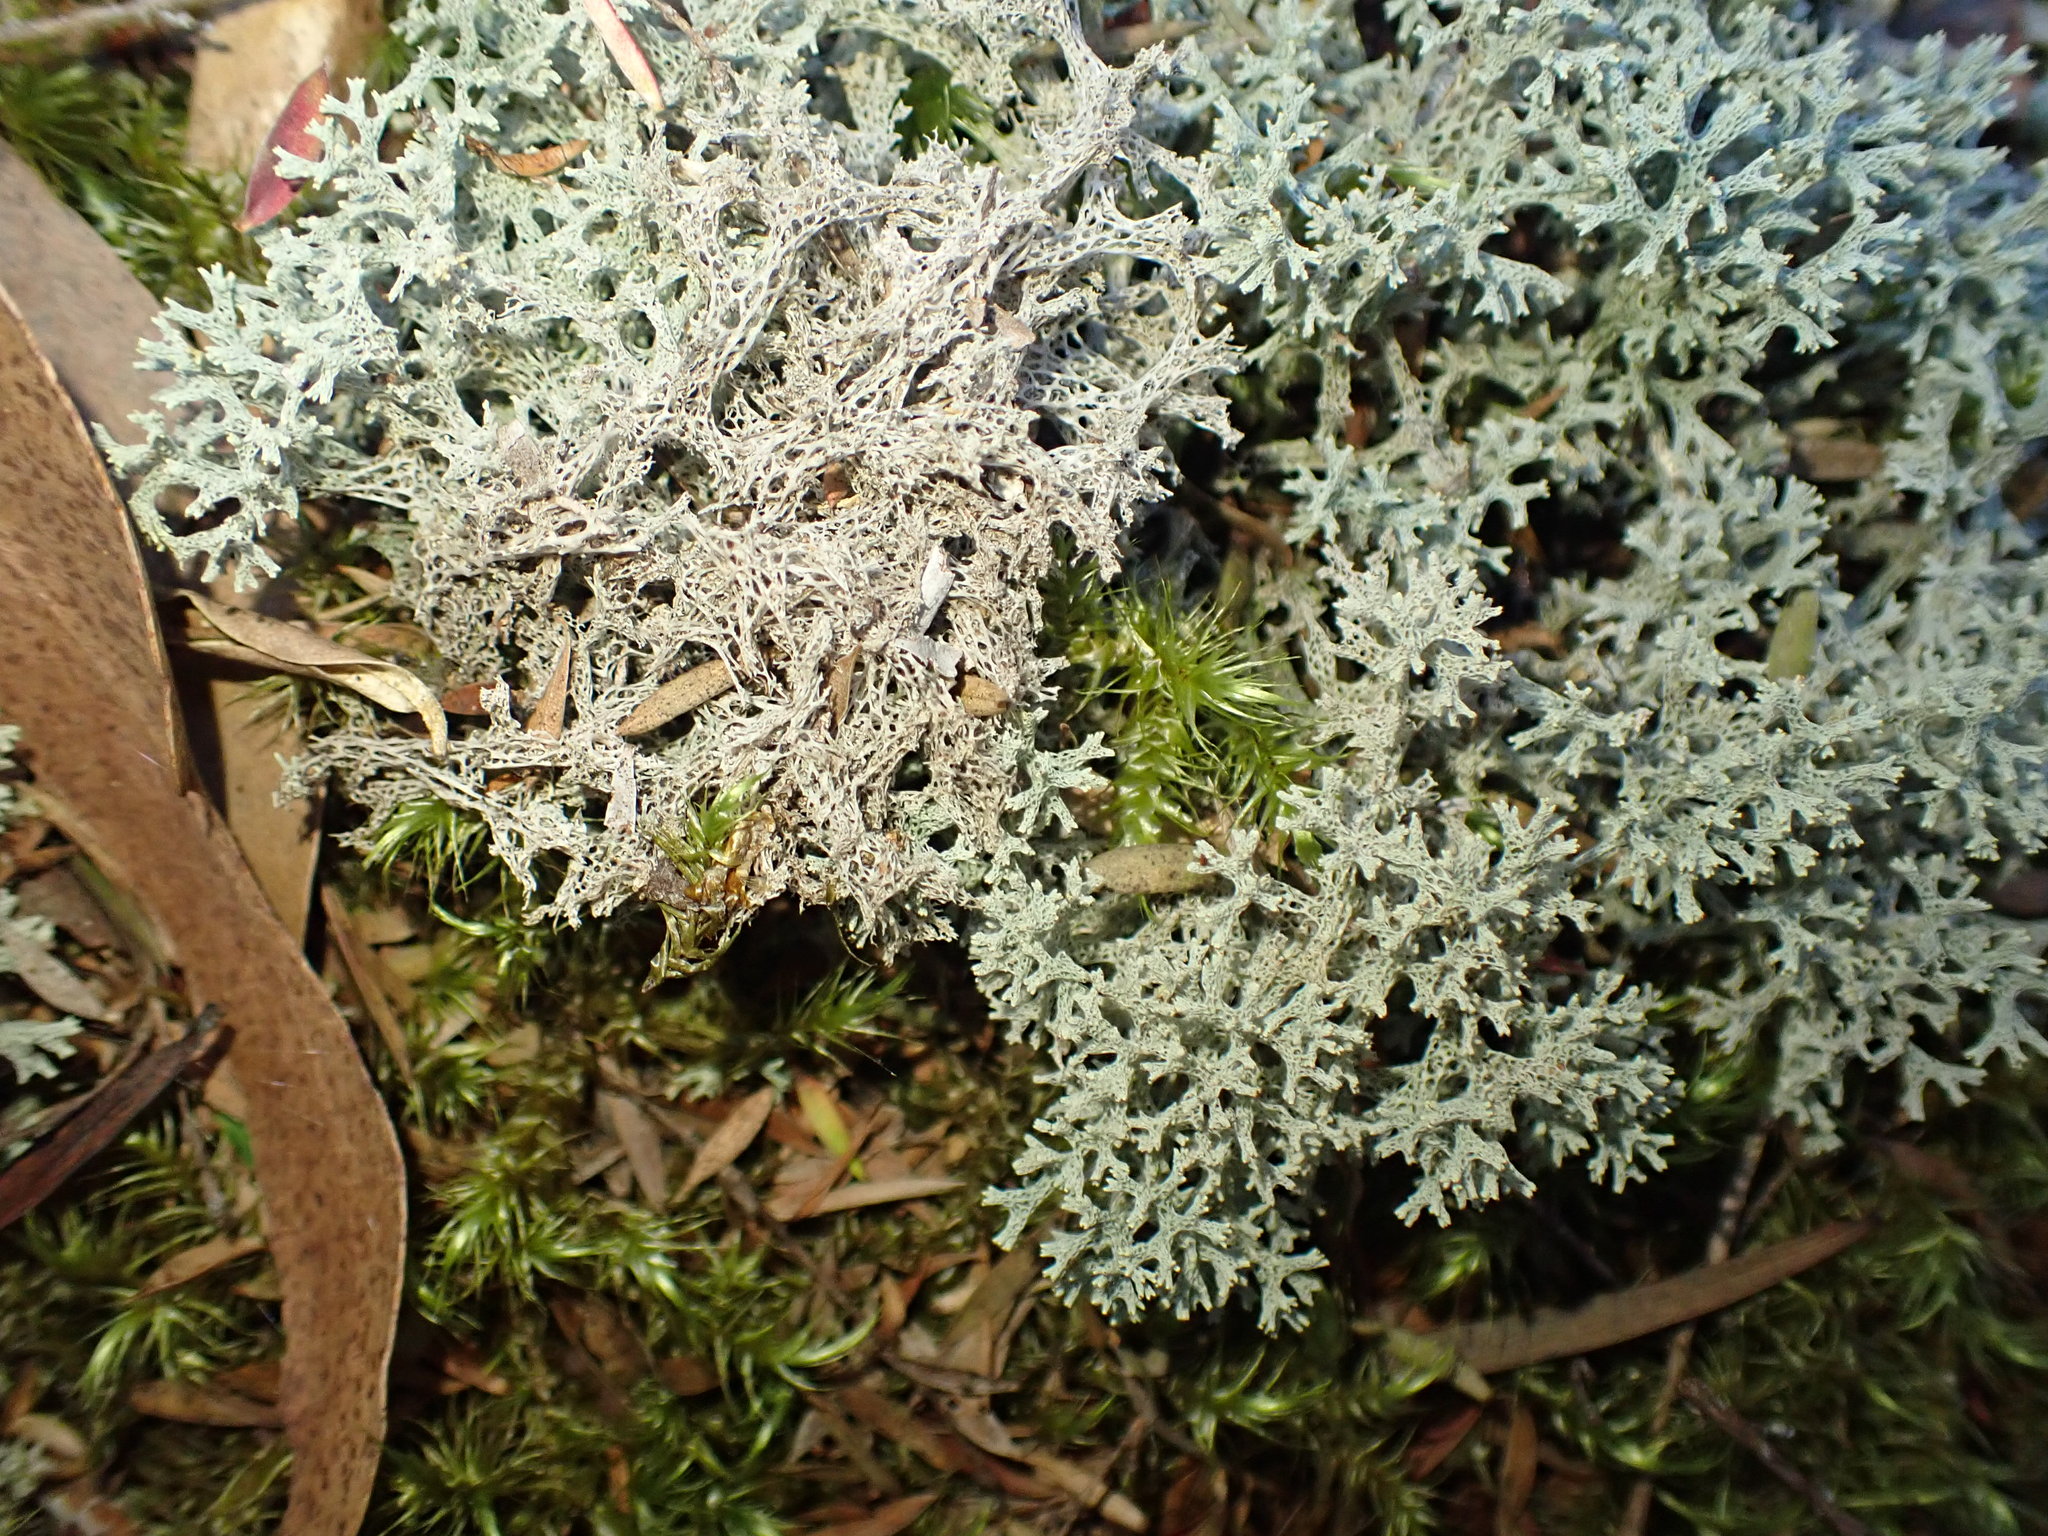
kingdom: Fungi
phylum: Ascomycota
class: Lecanoromycetes
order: Lecanorales
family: Cladoniaceae
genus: Pulchrocladia
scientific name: Pulchrocladia retipora
